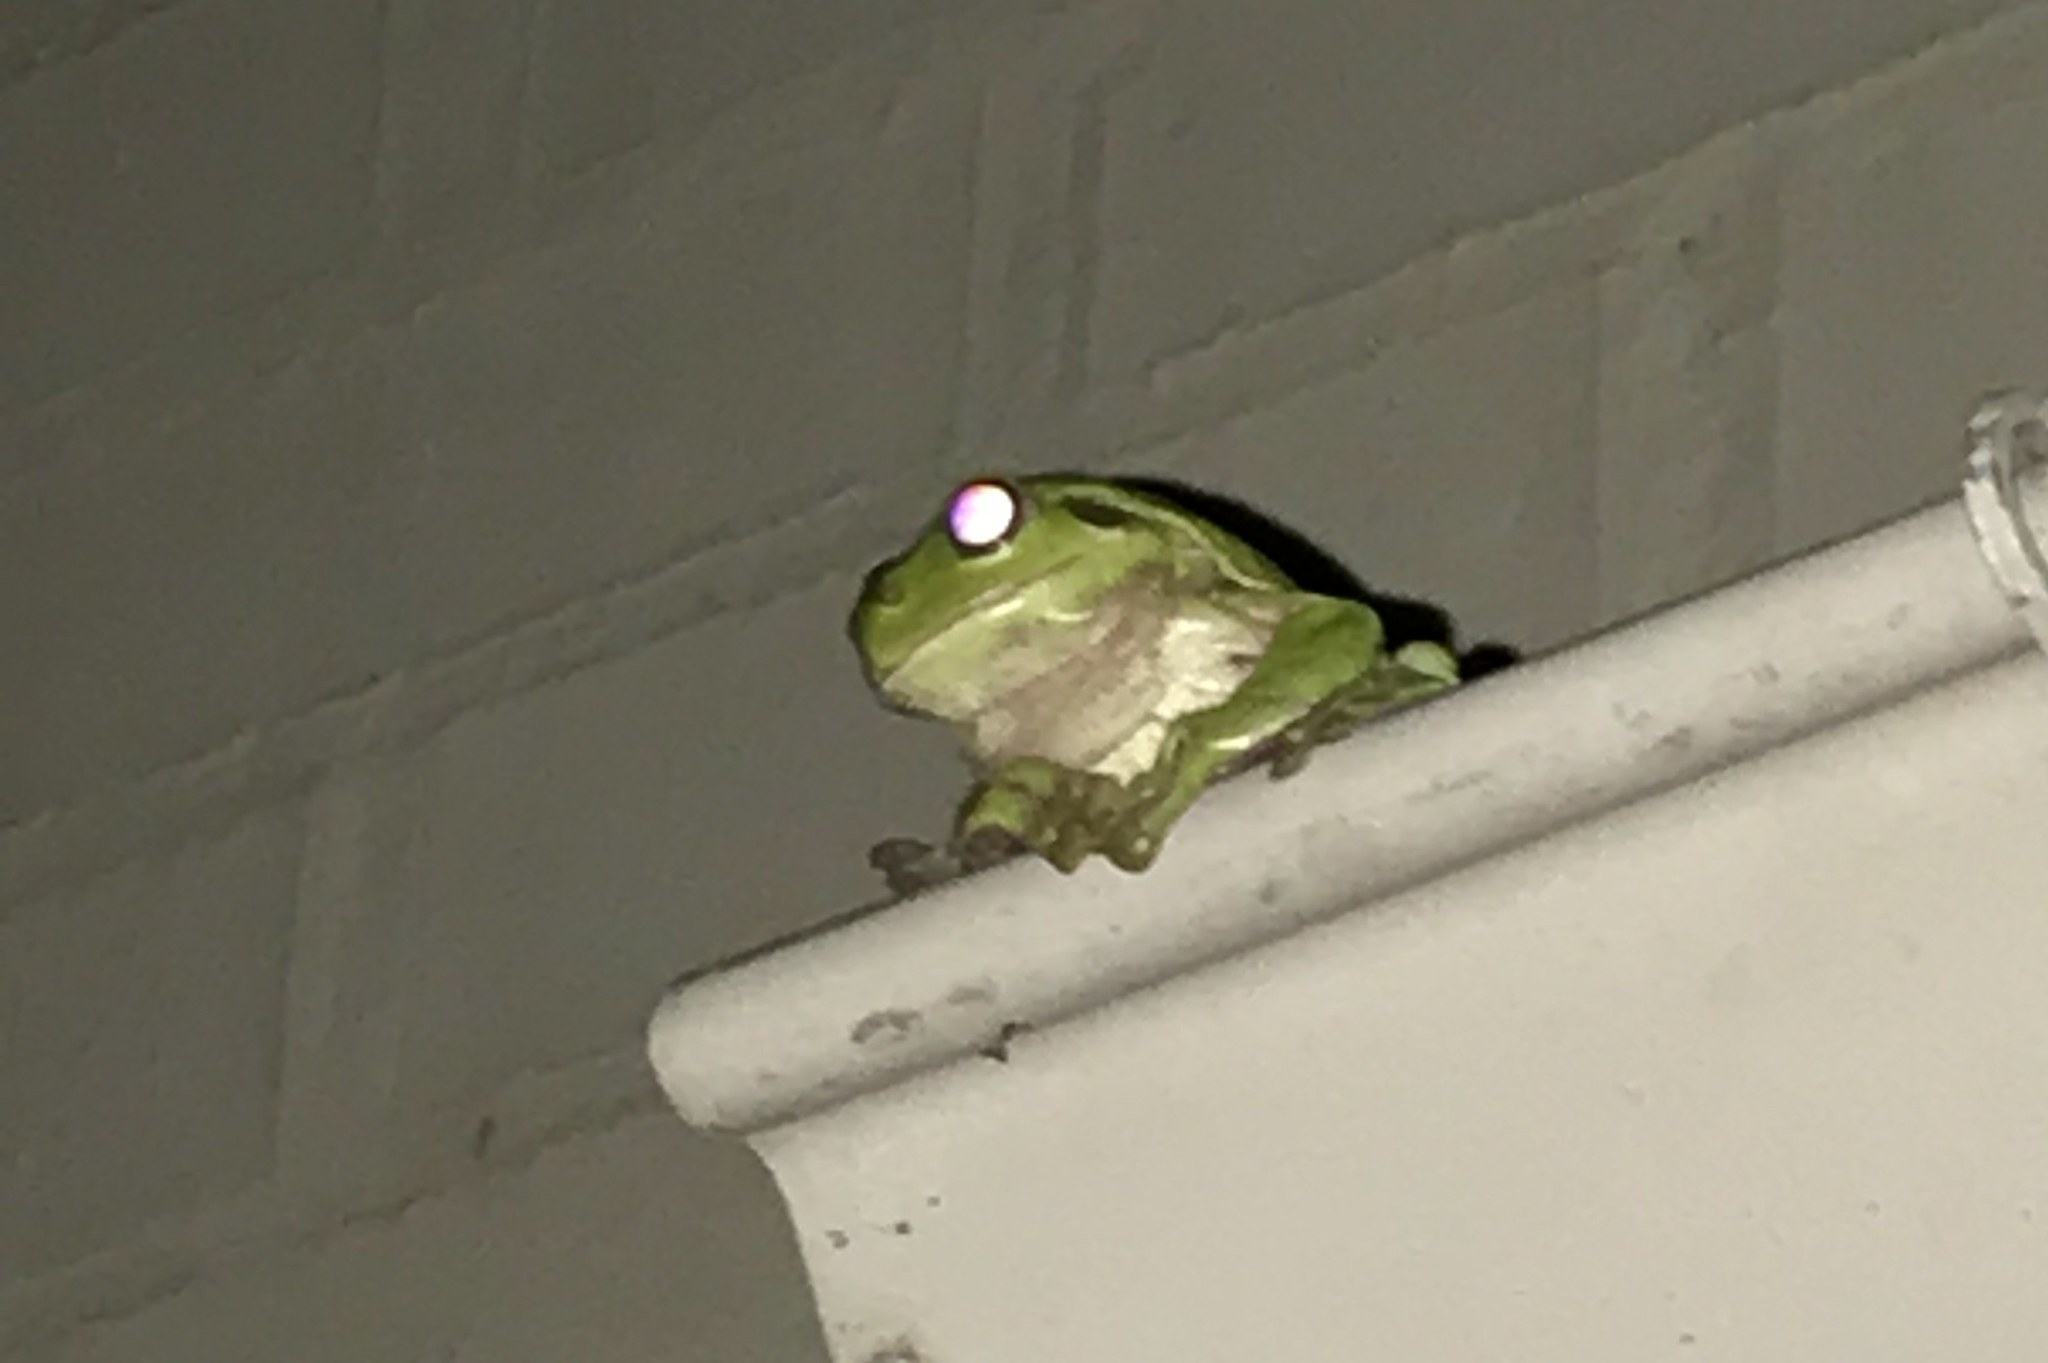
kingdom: Animalia
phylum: Chordata
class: Amphibia
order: Anura
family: Pelodryadidae
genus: Ranoidea
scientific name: Ranoidea caerulea
